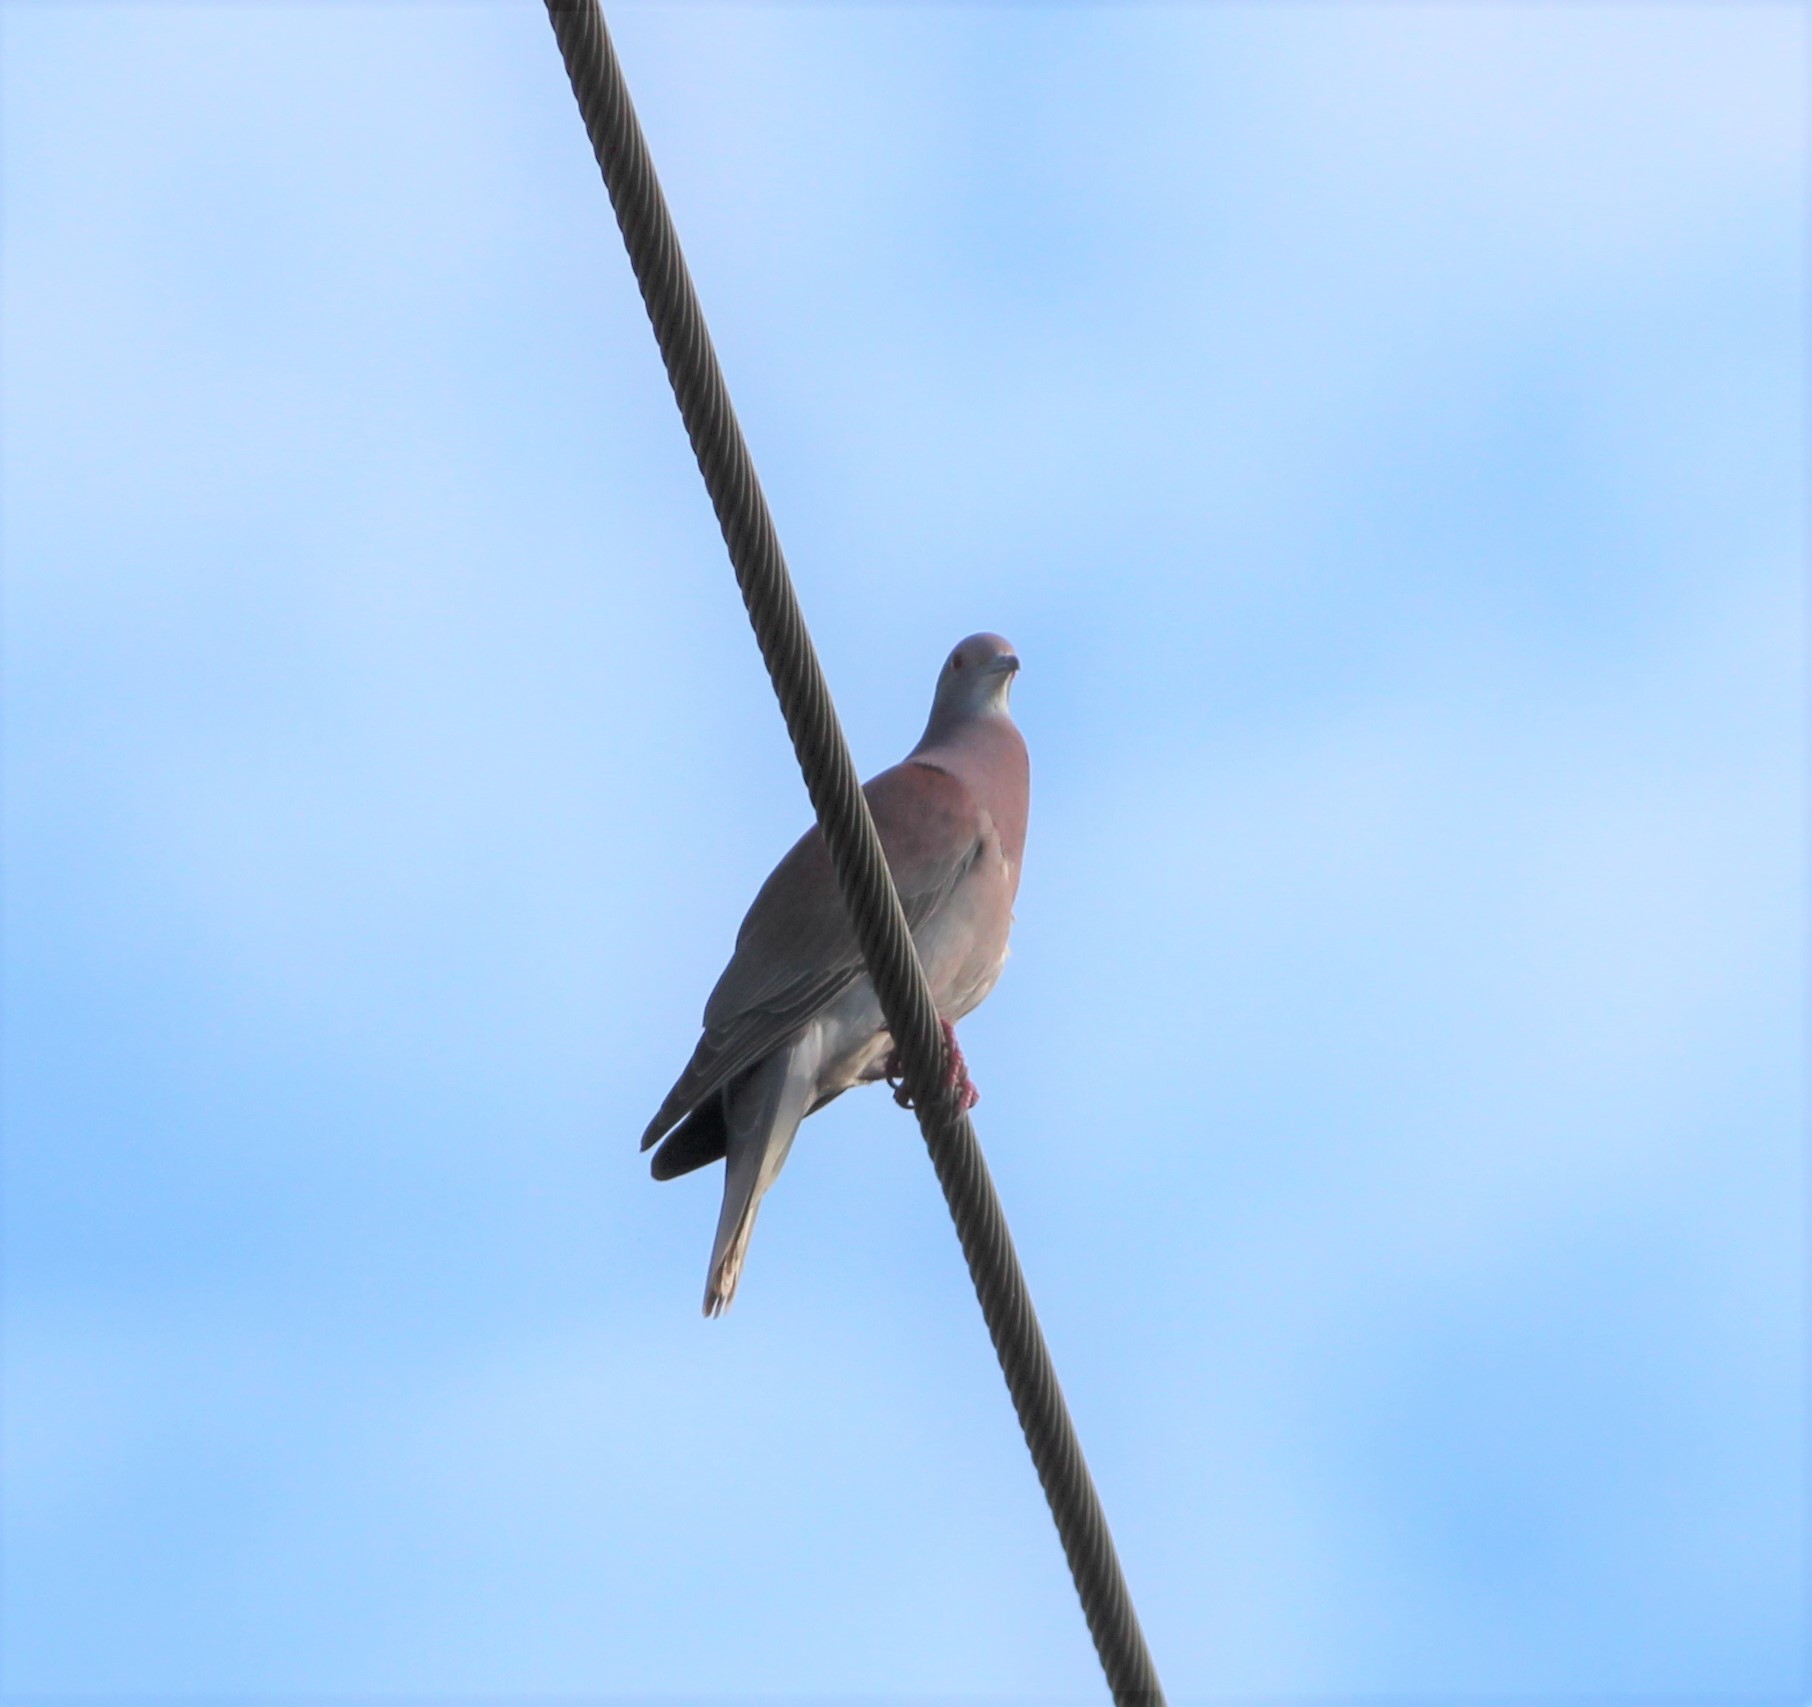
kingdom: Animalia
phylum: Chordata
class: Aves
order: Columbiformes
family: Columbidae
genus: Patagioenas
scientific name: Patagioenas cayennensis
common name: Pale-vented pigeon
